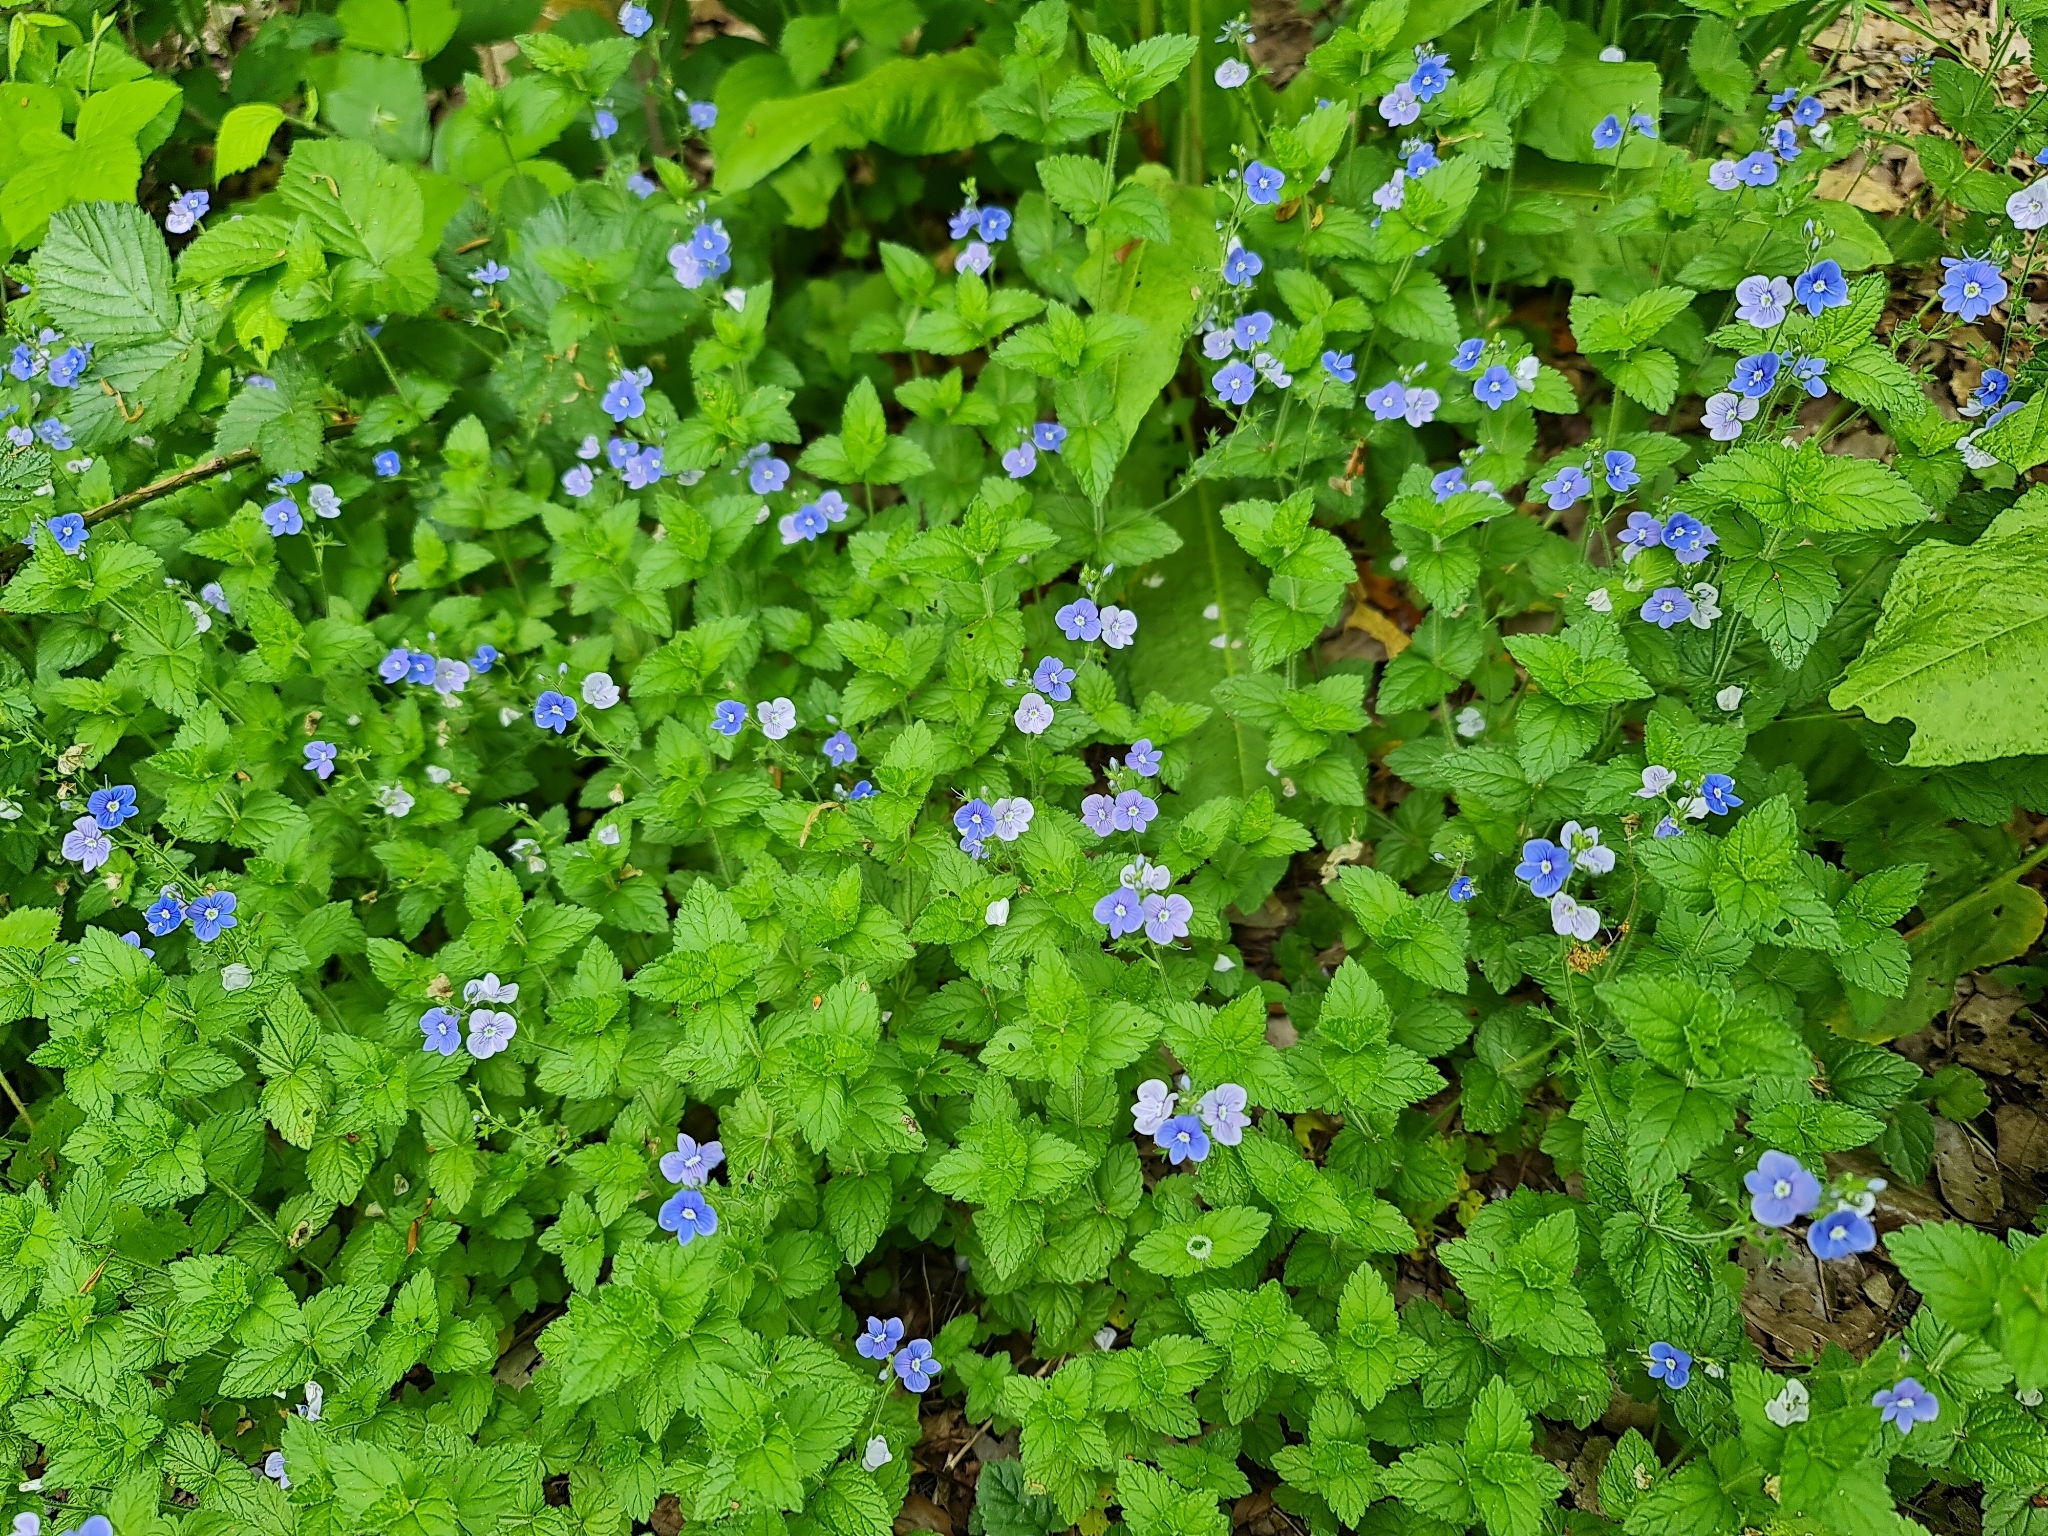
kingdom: Plantae
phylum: Tracheophyta
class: Magnoliopsida
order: Lamiales
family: Plantaginaceae
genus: Veronica
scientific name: Veronica chamaedrys
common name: Germander speedwell
